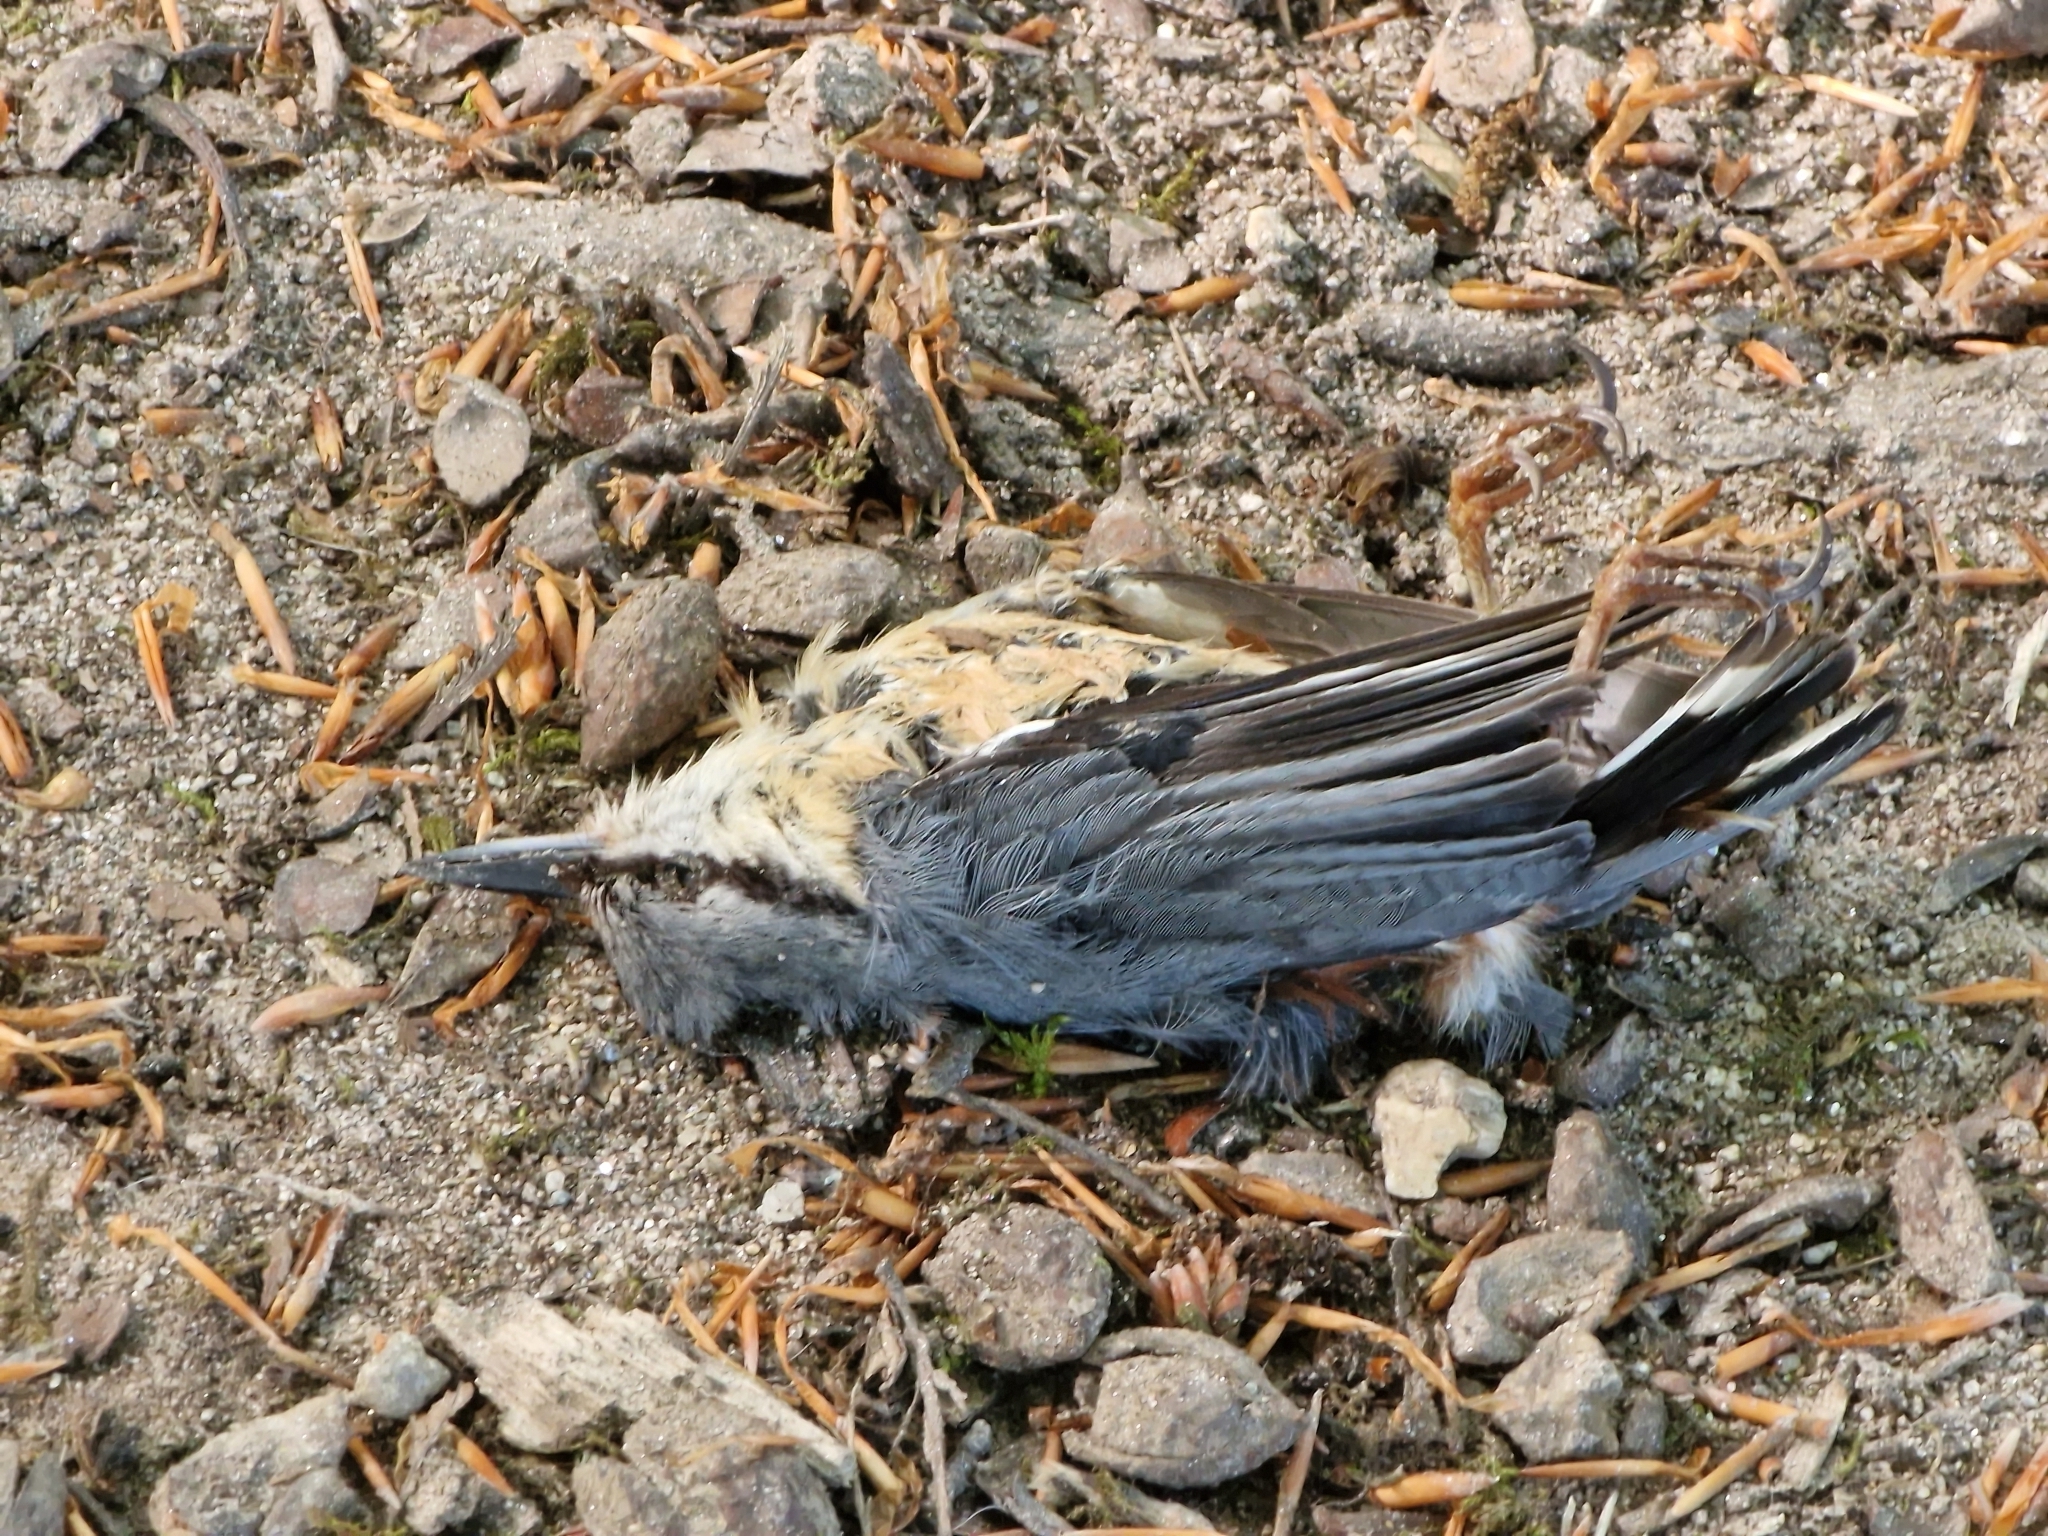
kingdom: Animalia
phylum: Chordata
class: Aves
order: Passeriformes
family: Sittidae
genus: Sitta
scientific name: Sitta europaea
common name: Eurasian nuthatch
